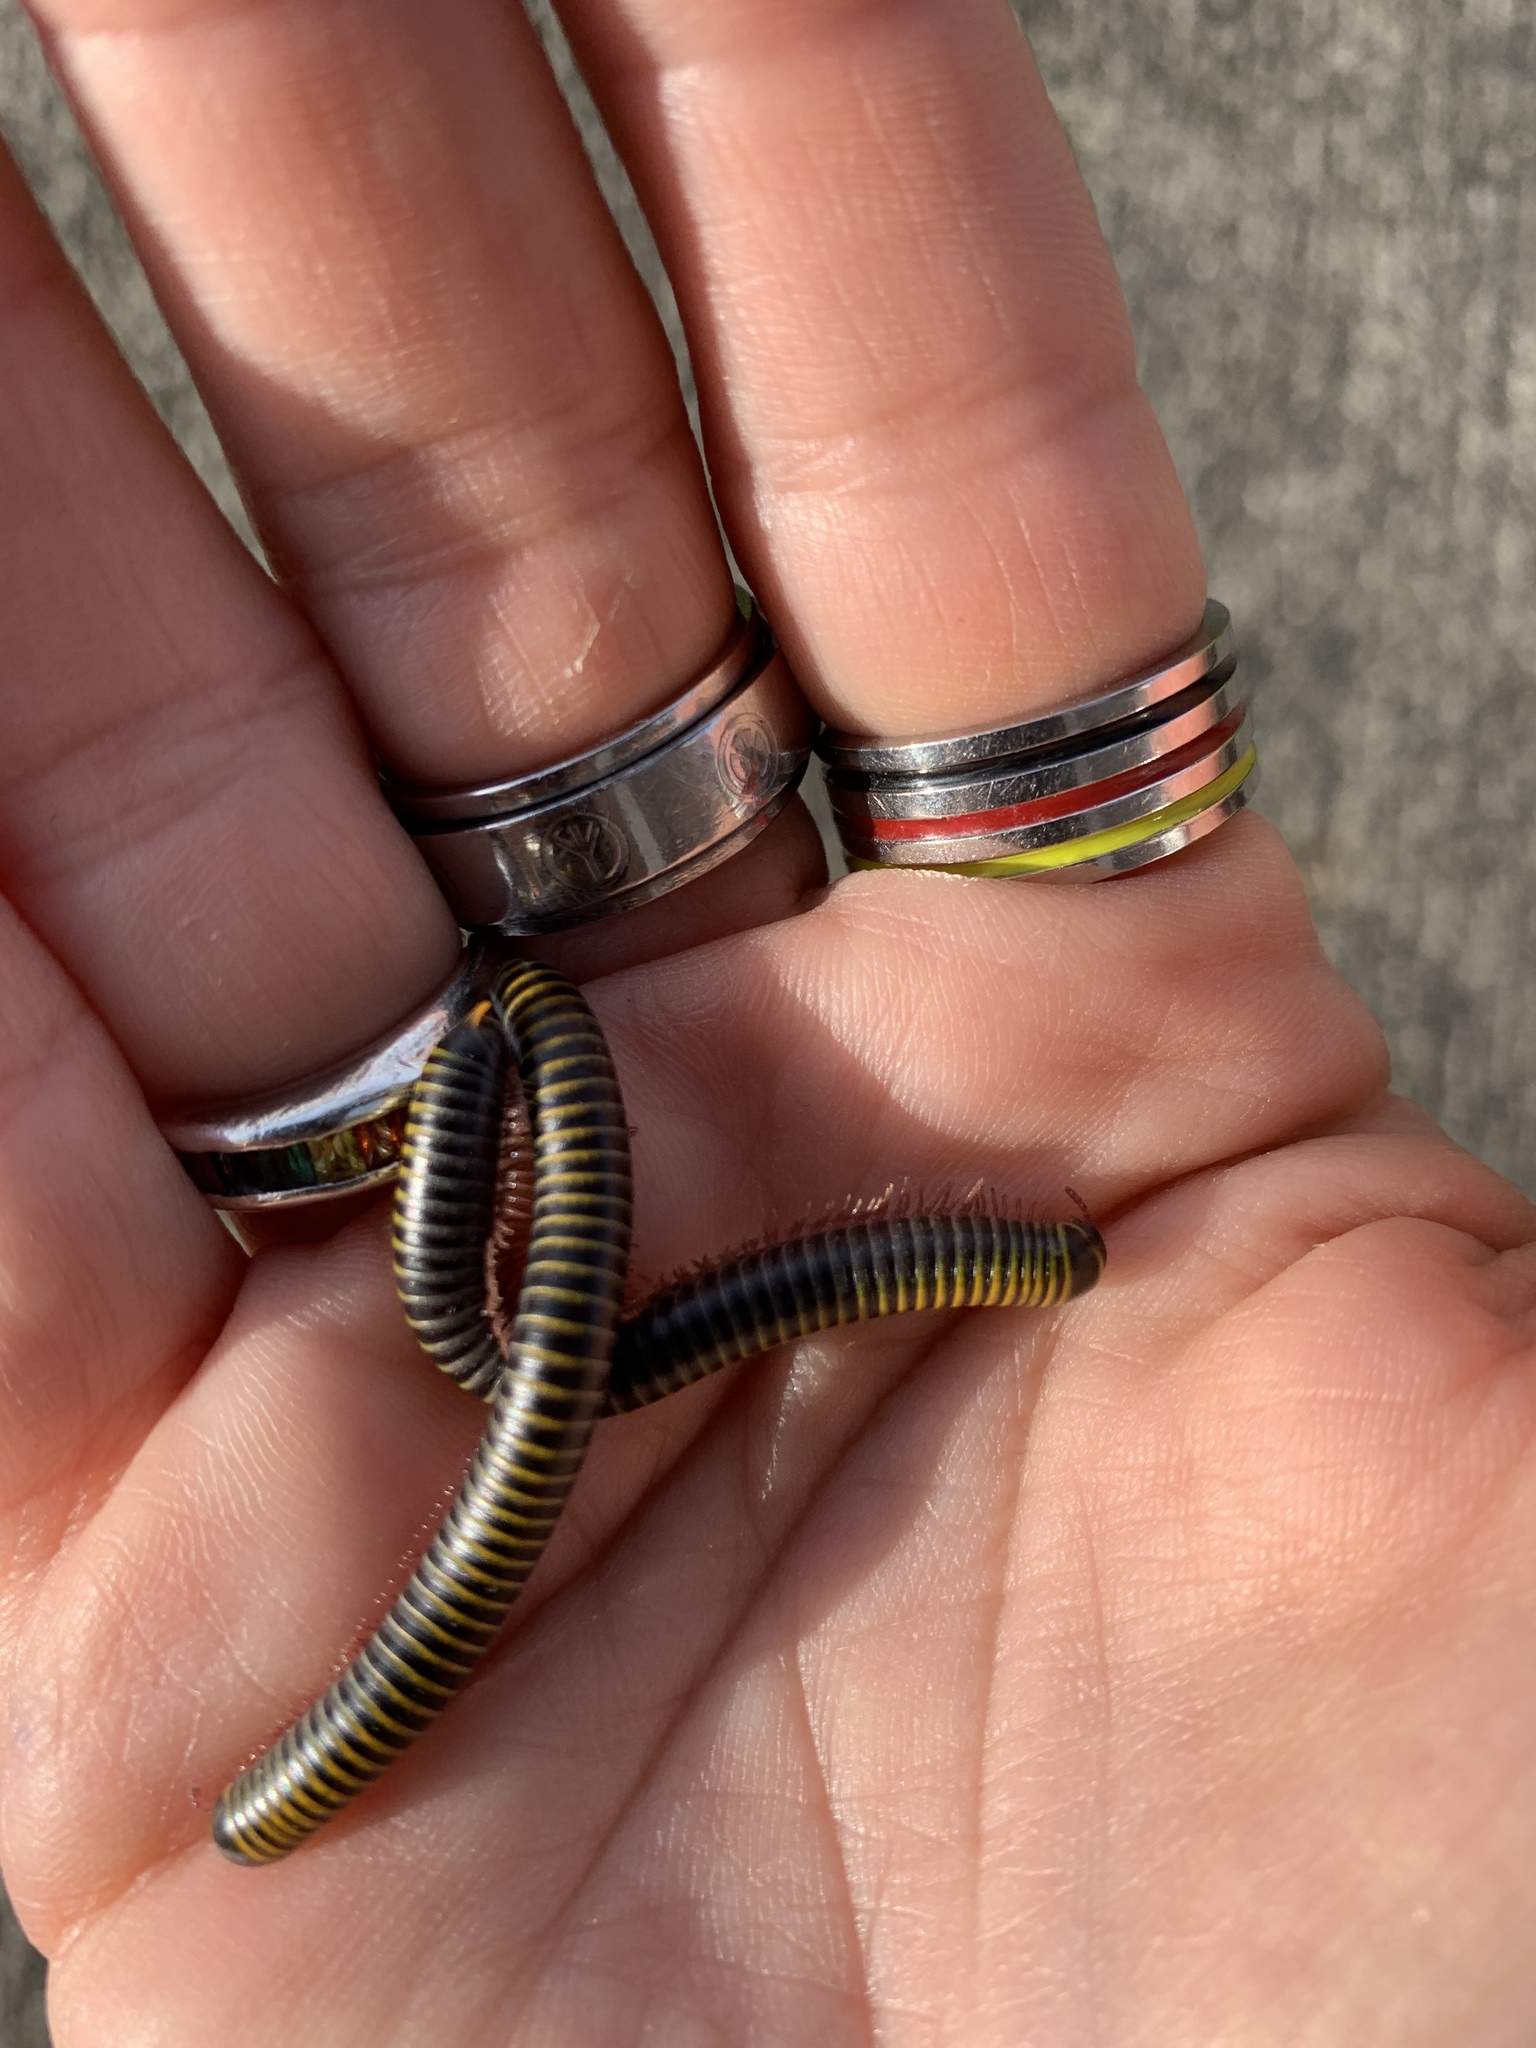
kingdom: Animalia
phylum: Arthropoda
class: Diplopoda
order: Spirobolida
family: Rhinocricidae
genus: Anadenobolus
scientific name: Anadenobolus monilicornis
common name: Caribbean millipede
